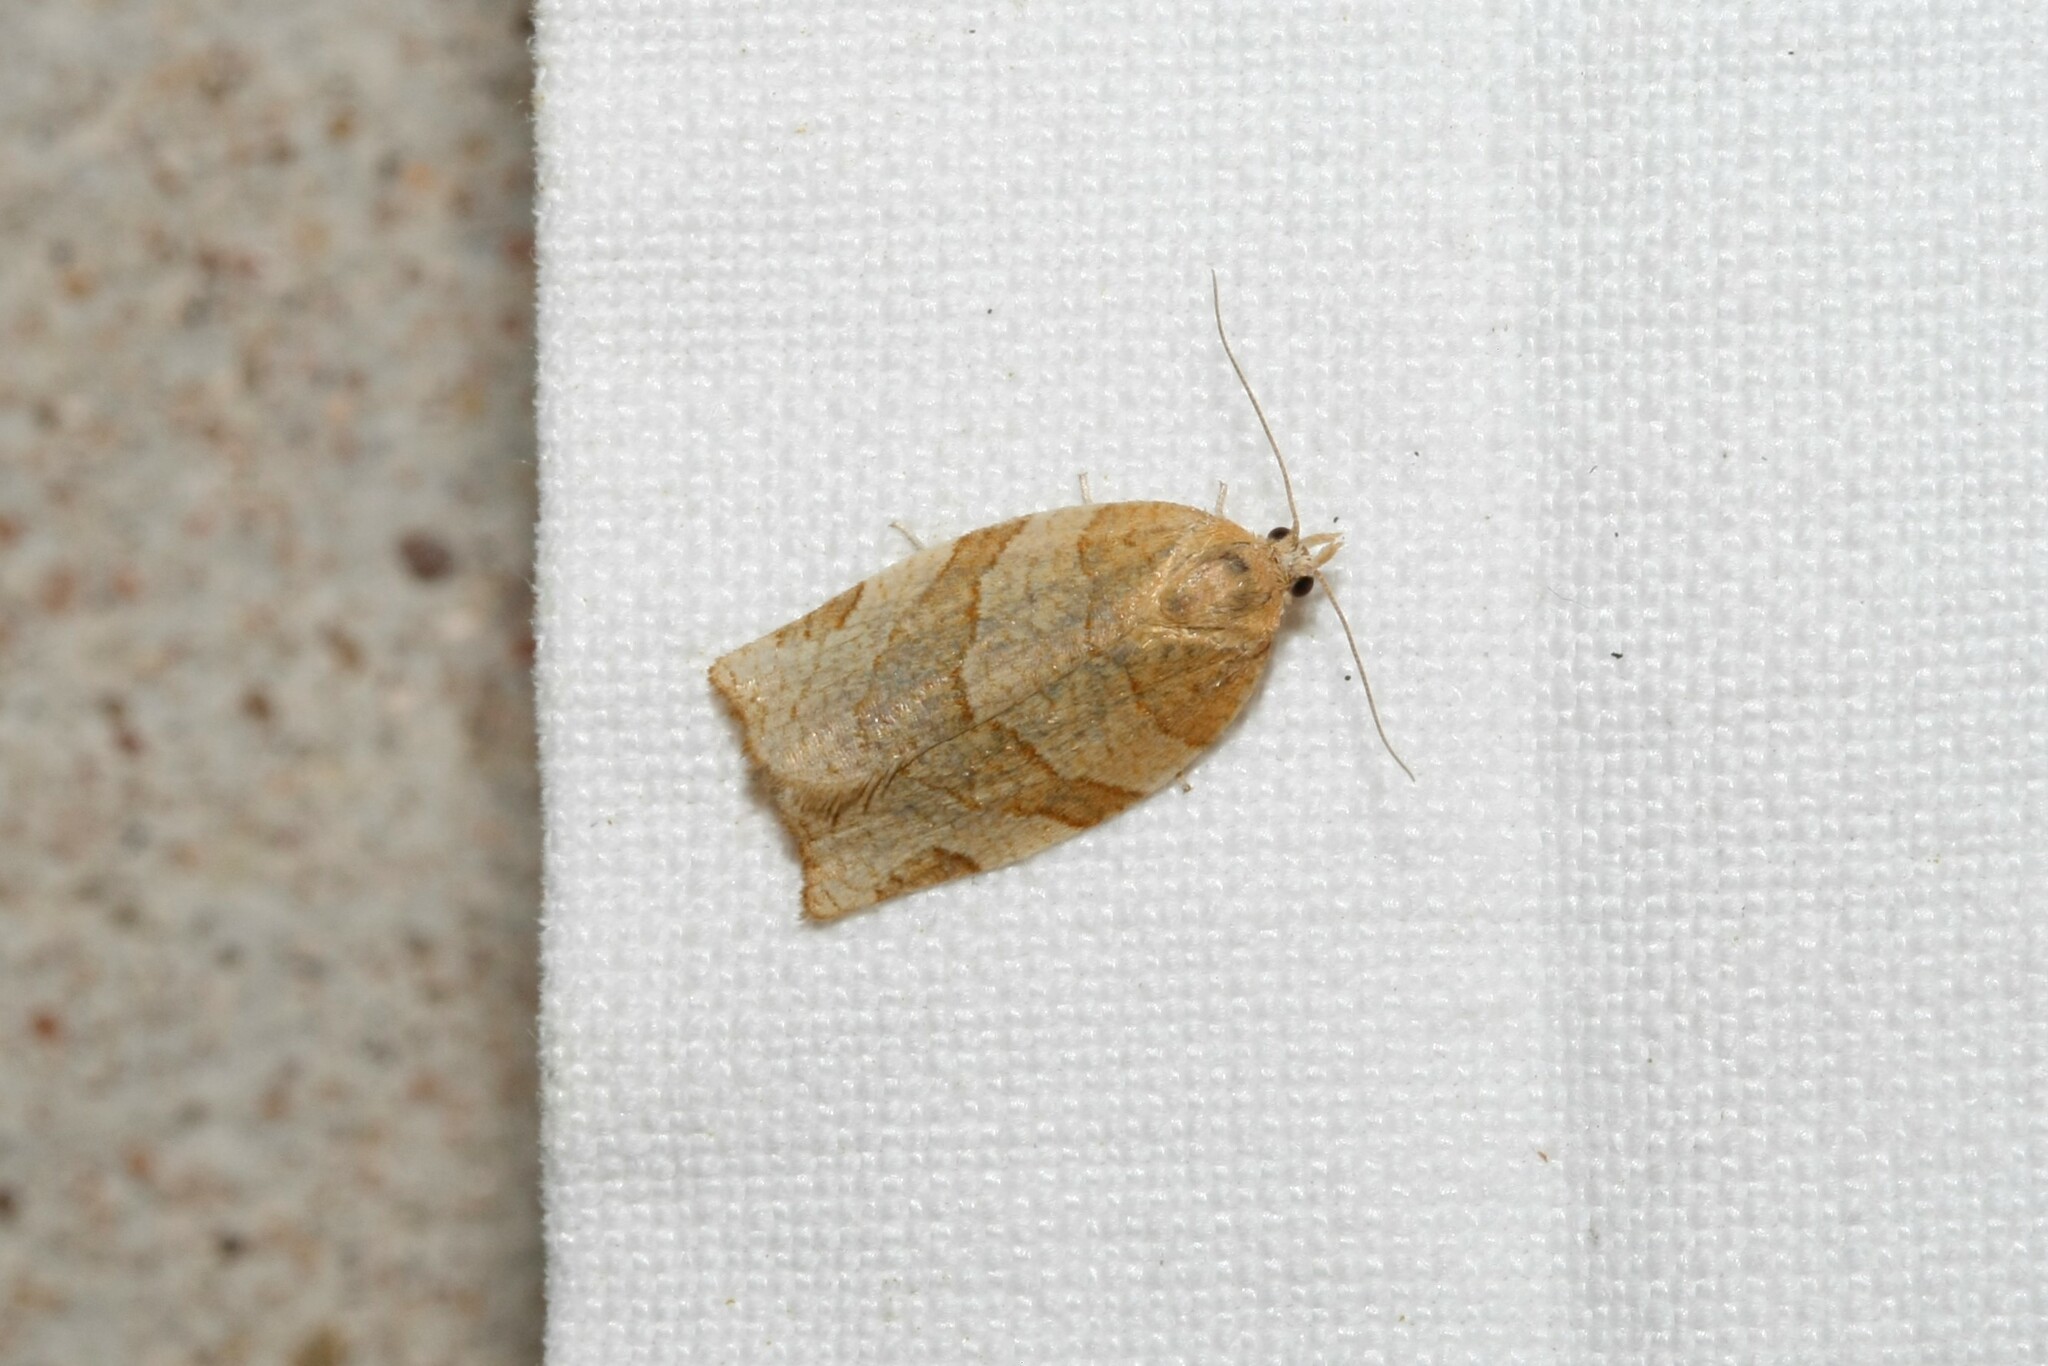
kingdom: Animalia
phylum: Arthropoda
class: Insecta
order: Lepidoptera
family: Tortricidae
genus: Pandemis
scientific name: Pandemis cerasana
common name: Barred fruit-tree tortrix
